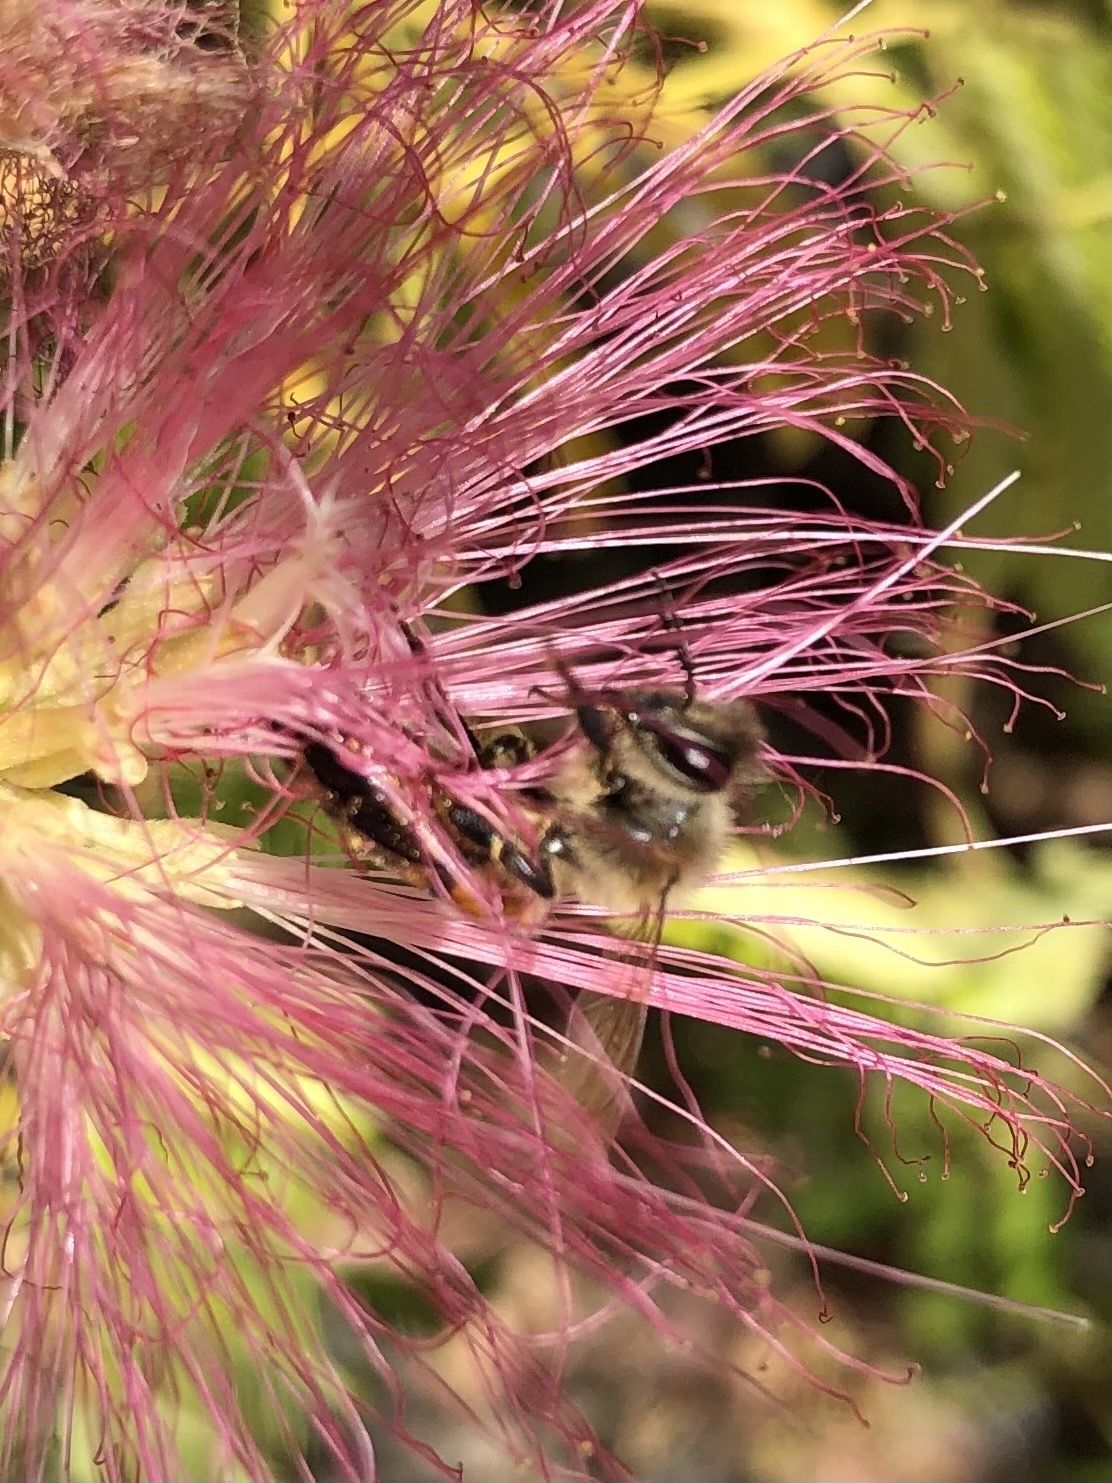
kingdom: Animalia
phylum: Arthropoda
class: Insecta
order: Hymenoptera
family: Apidae
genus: Apis
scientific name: Apis mellifera
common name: Honey bee
